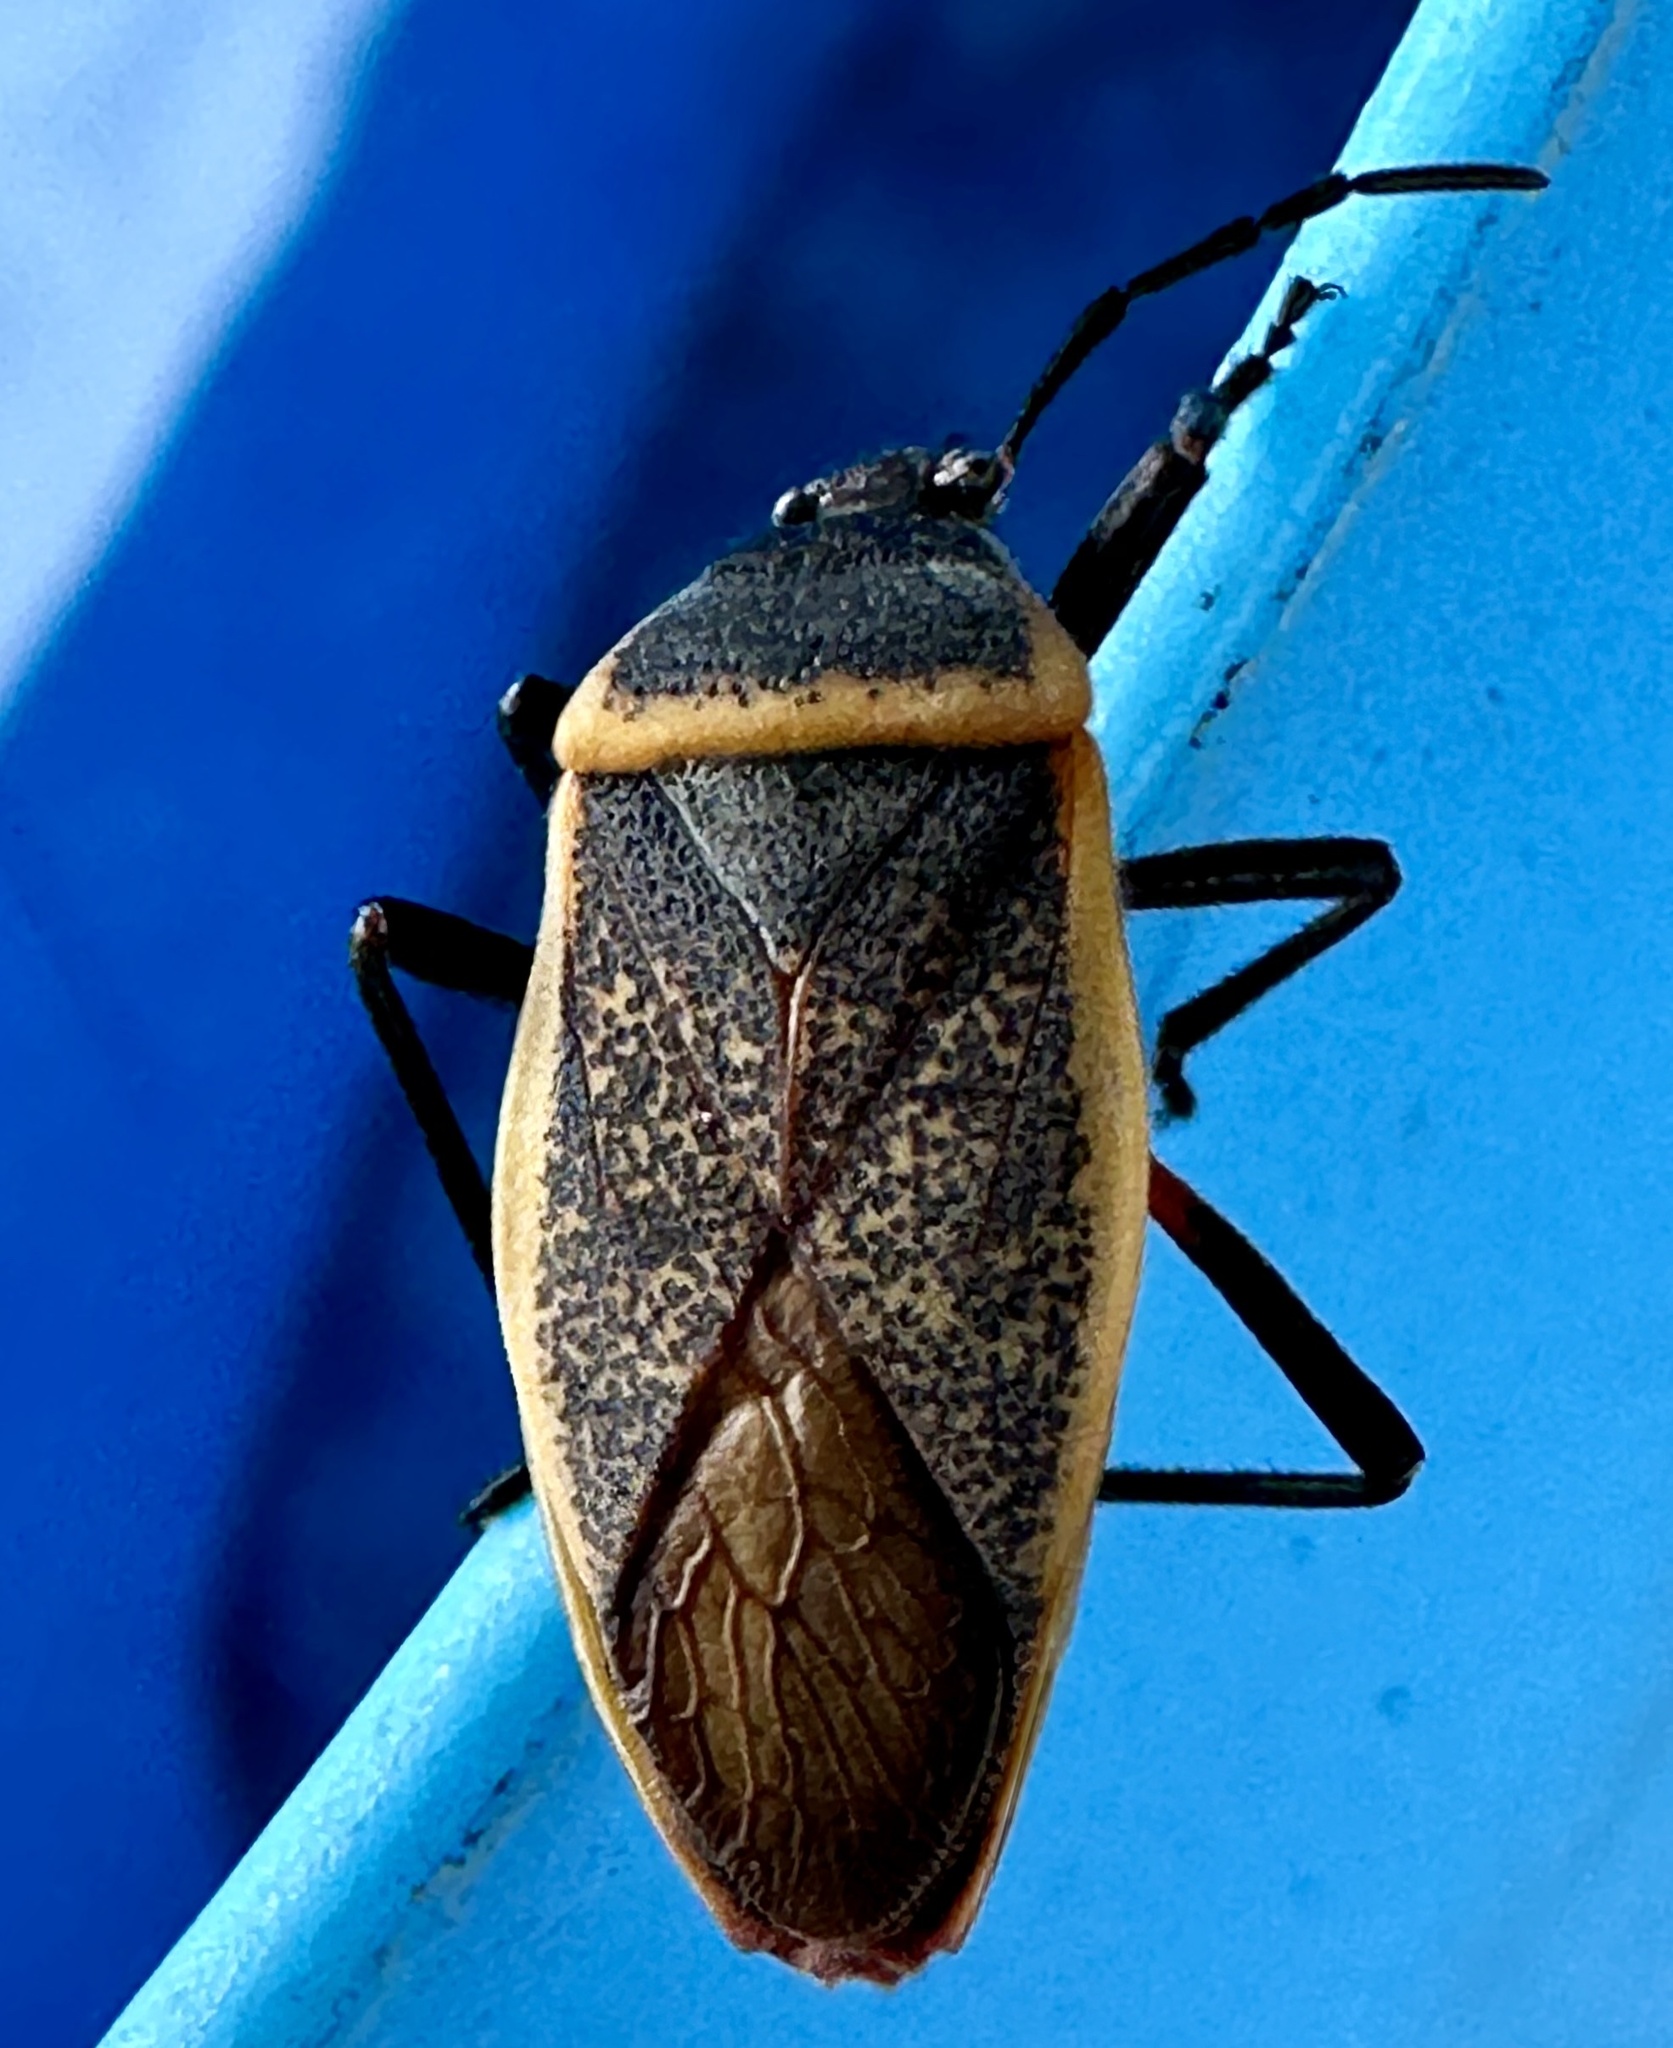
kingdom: Animalia
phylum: Arthropoda
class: Insecta
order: Hemiptera
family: Largidae
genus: Largus
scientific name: Largus californicus
